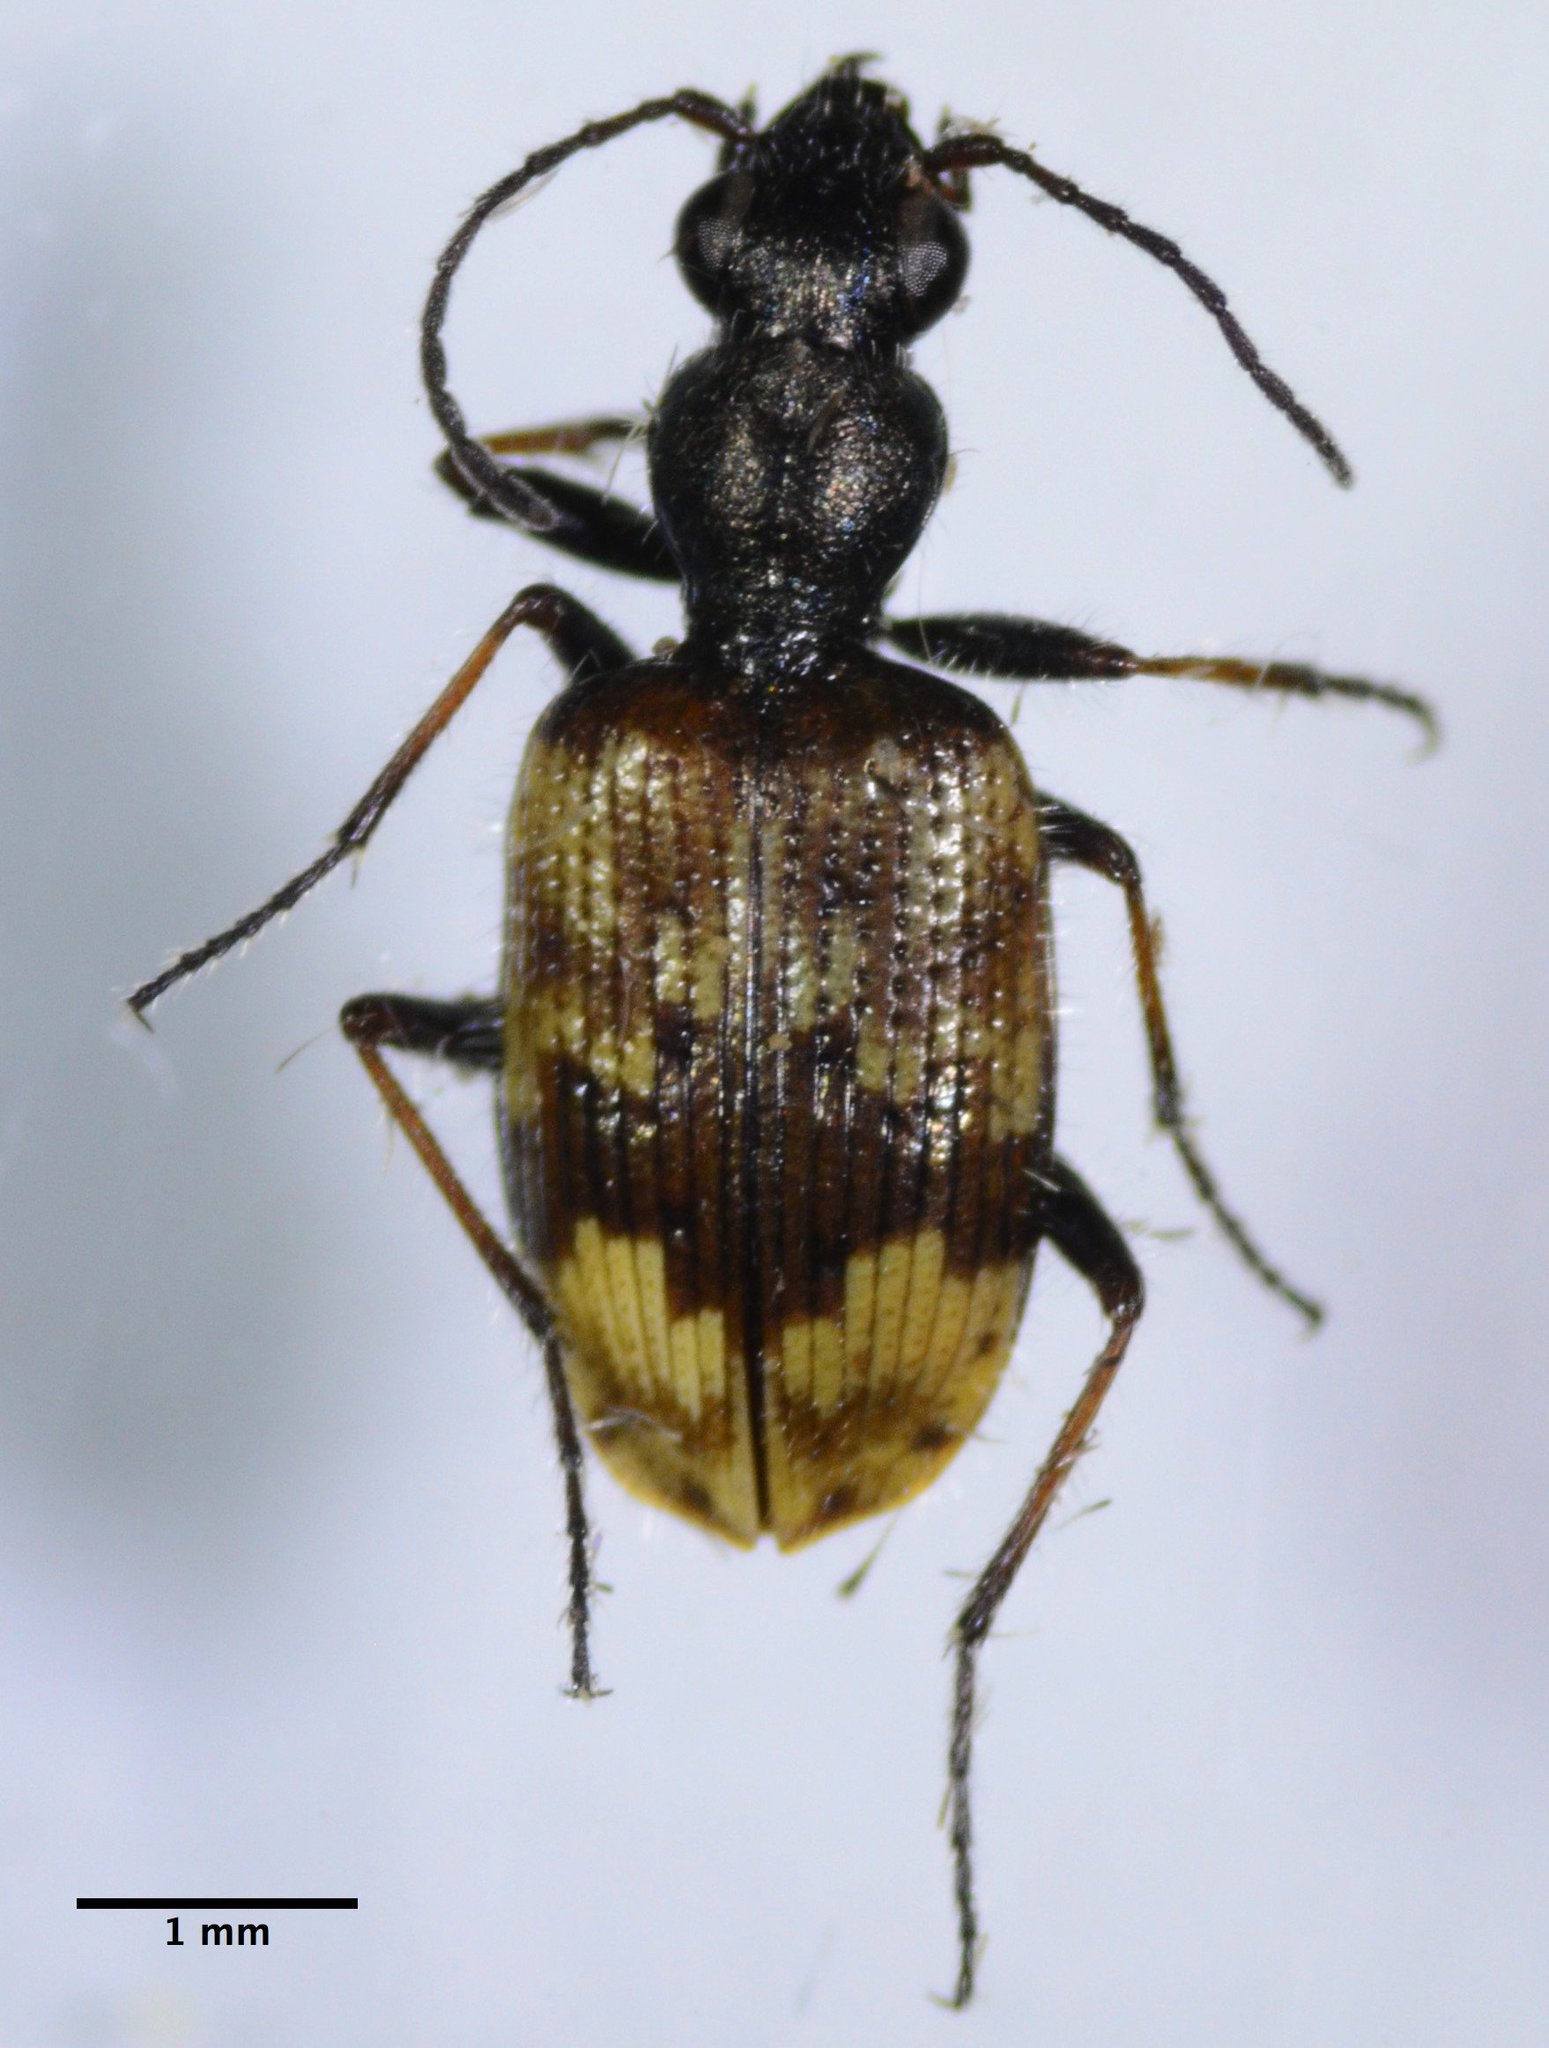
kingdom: Animalia
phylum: Arthropoda
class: Insecta
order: Coleoptera
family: Carabidae
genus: Lachnophorus
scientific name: Lachnophorus elegantulus
